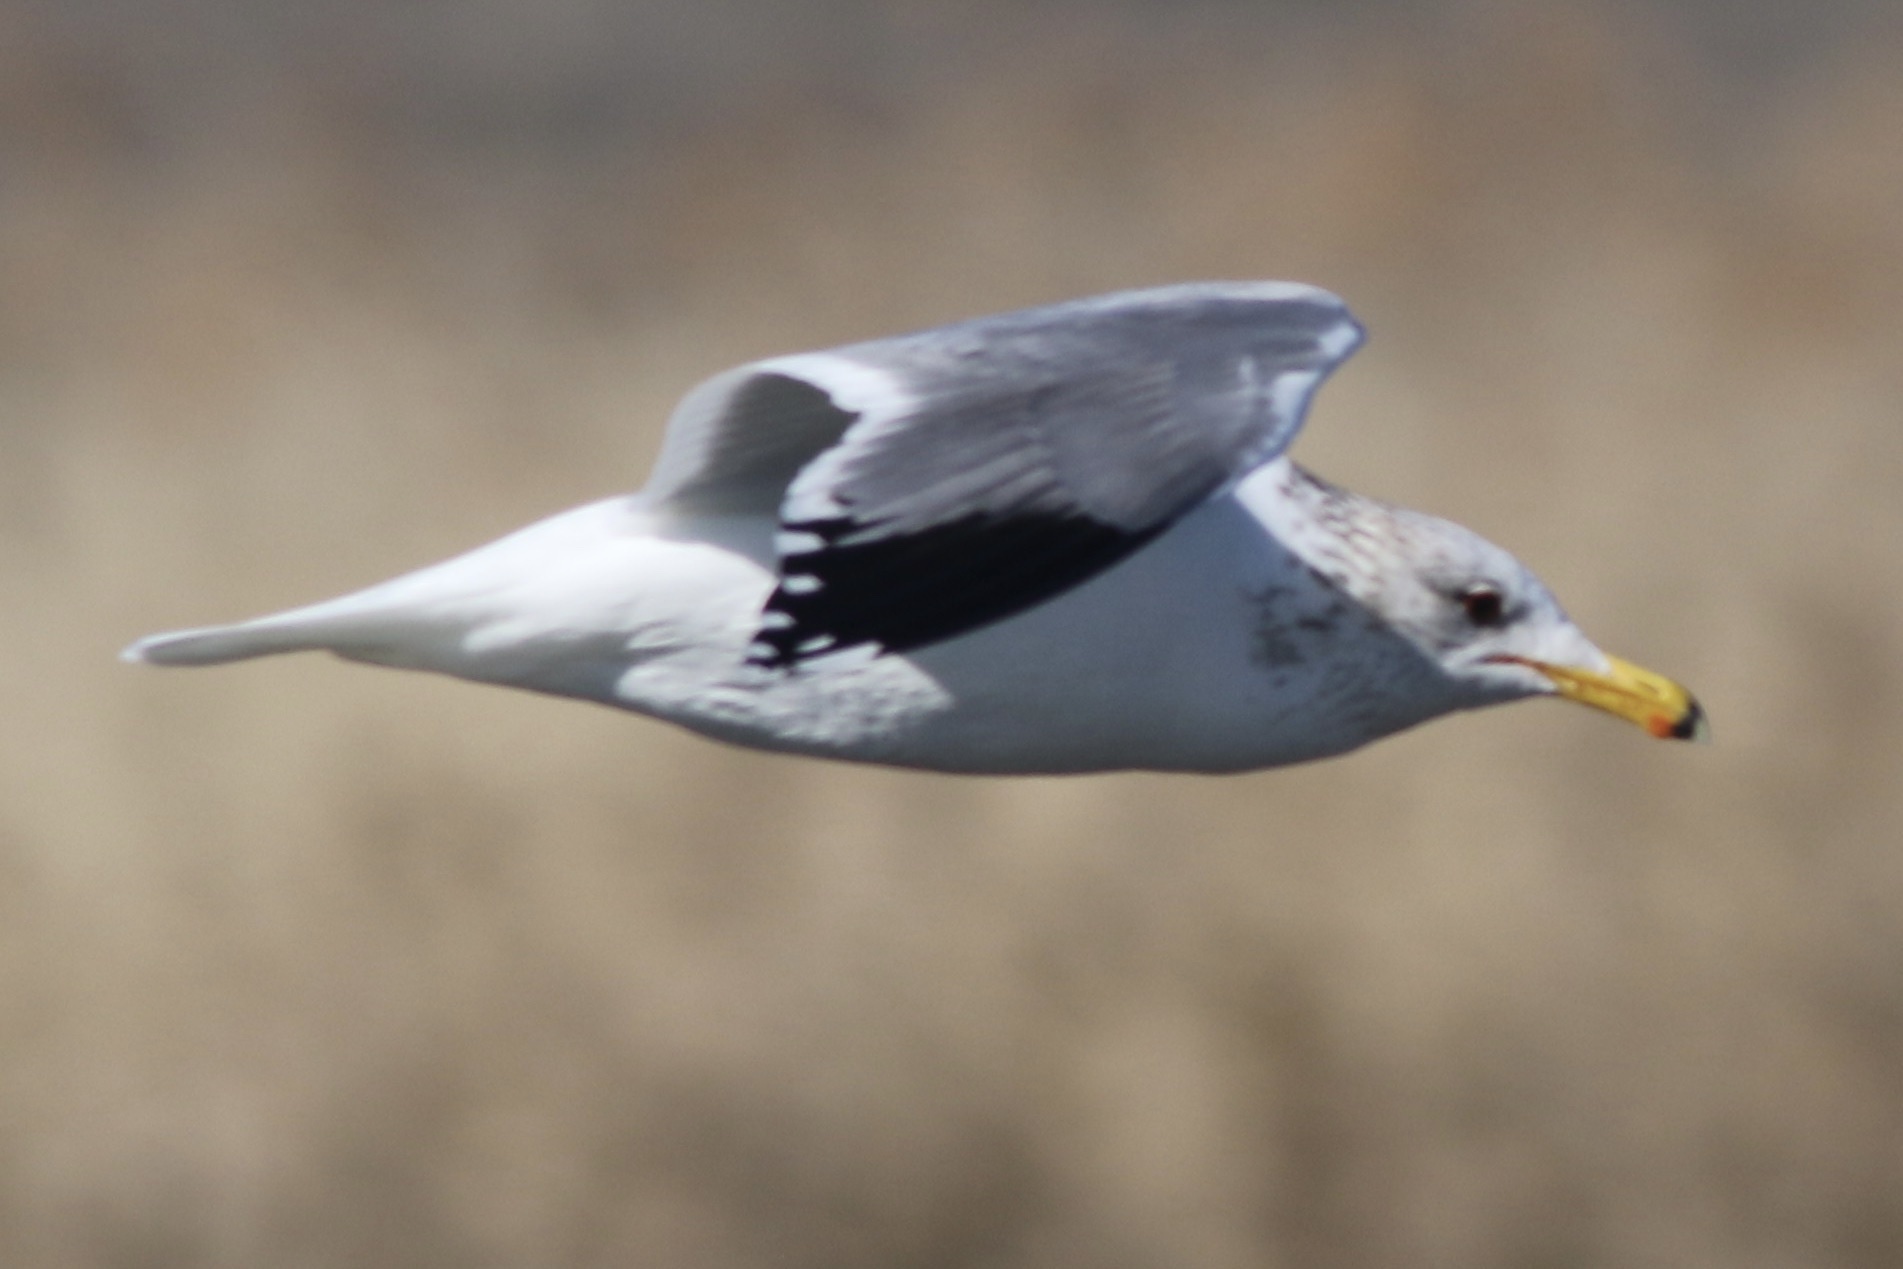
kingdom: Animalia
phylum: Chordata
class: Aves
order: Charadriiformes
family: Laridae
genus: Larus
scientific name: Larus californicus
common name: California gull
